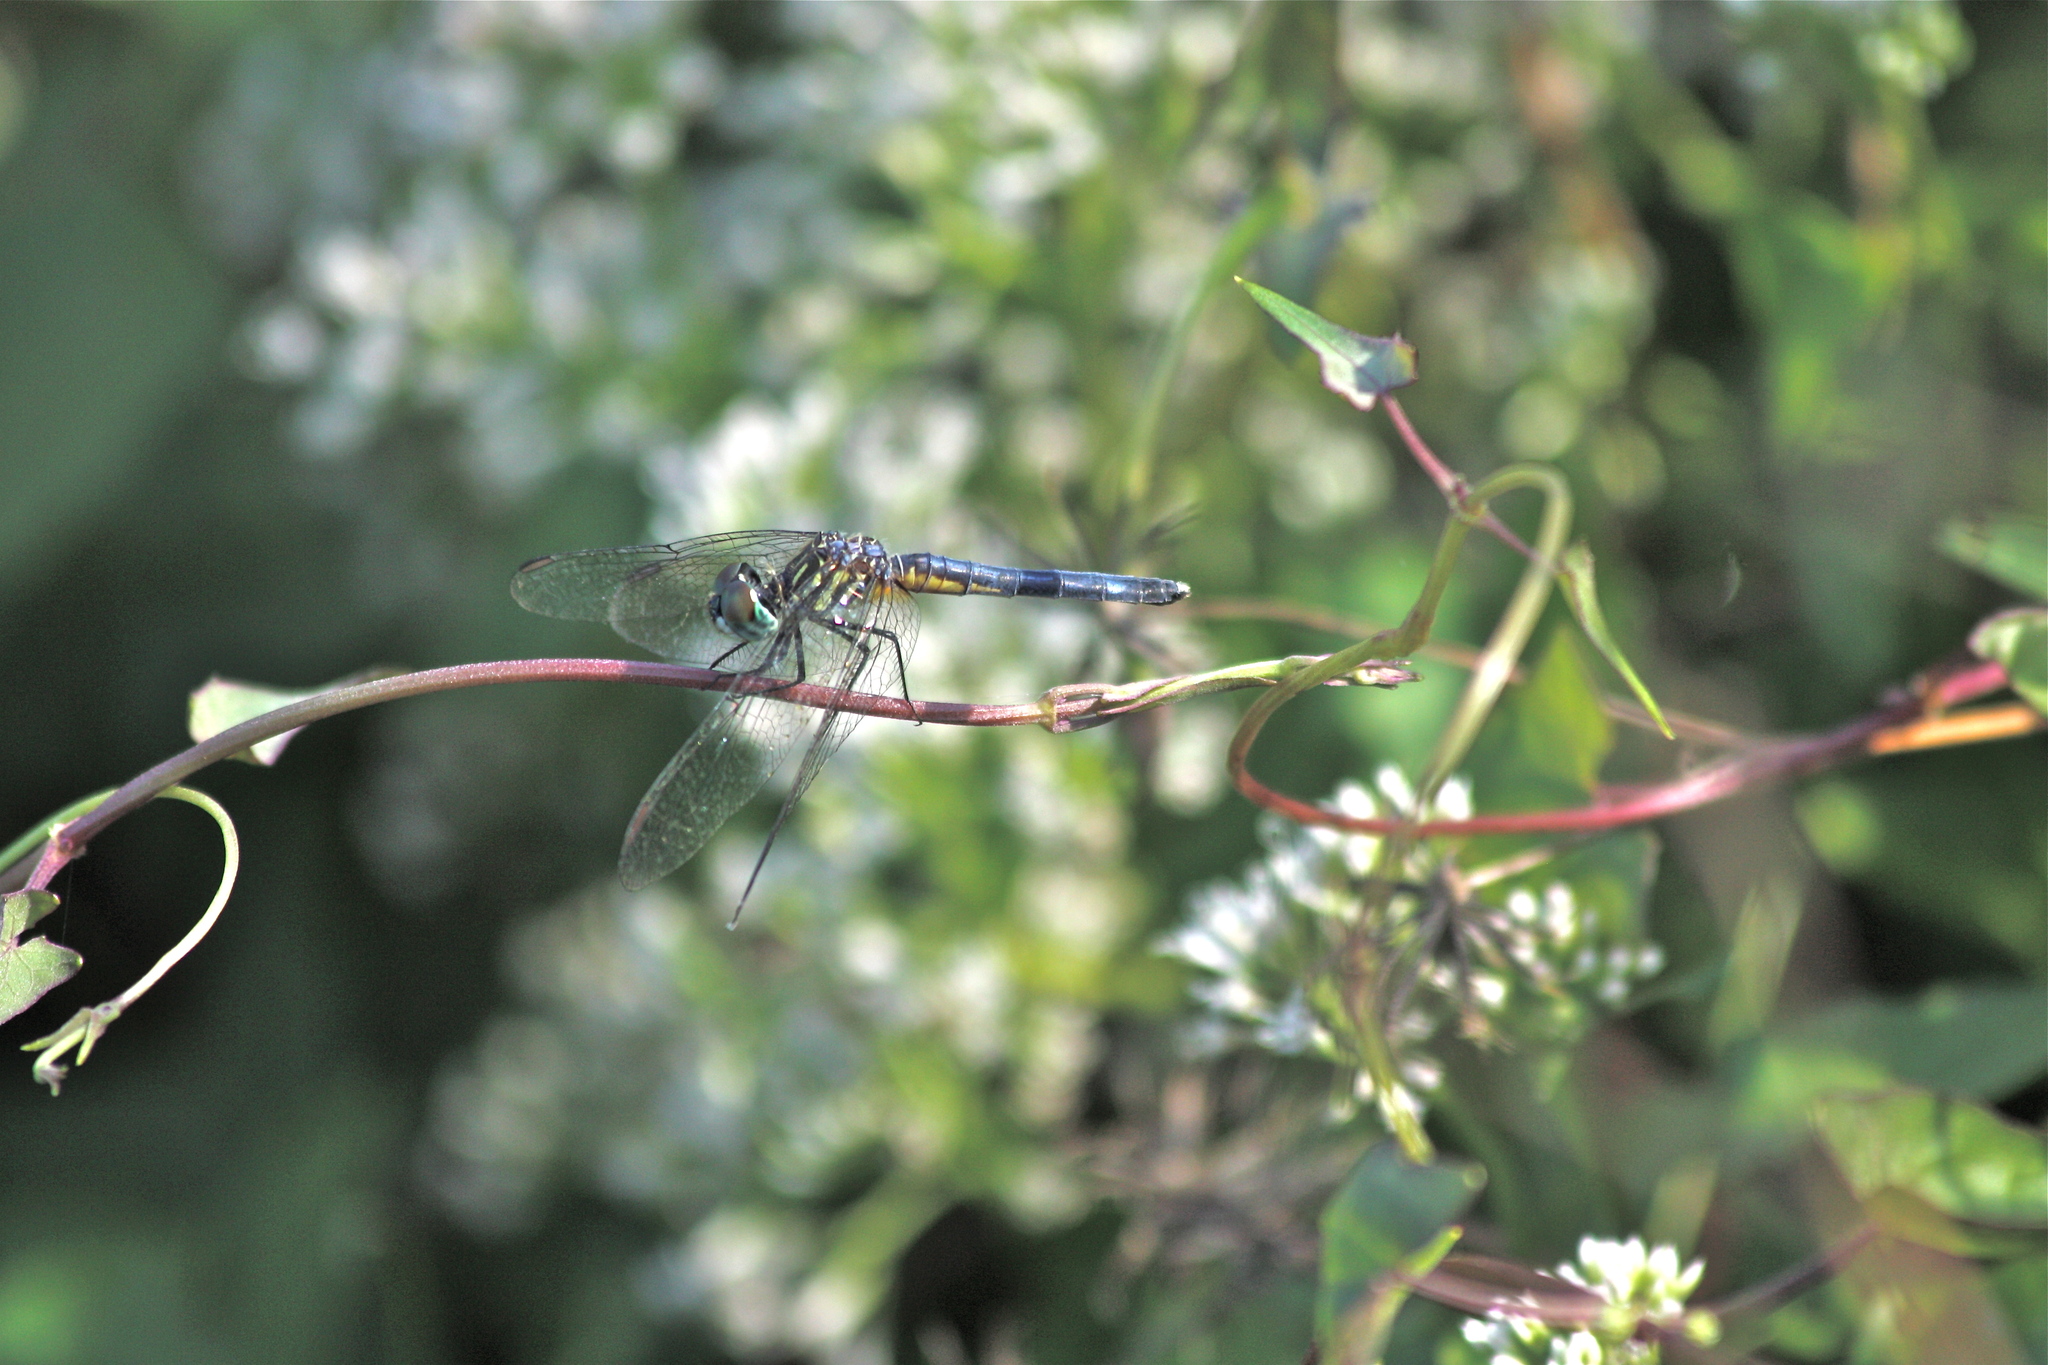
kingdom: Animalia
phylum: Arthropoda
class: Insecta
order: Odonata
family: Libellulidae
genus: Pachydiplax
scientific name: Pachydiplax longipennis
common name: Blue dasher
